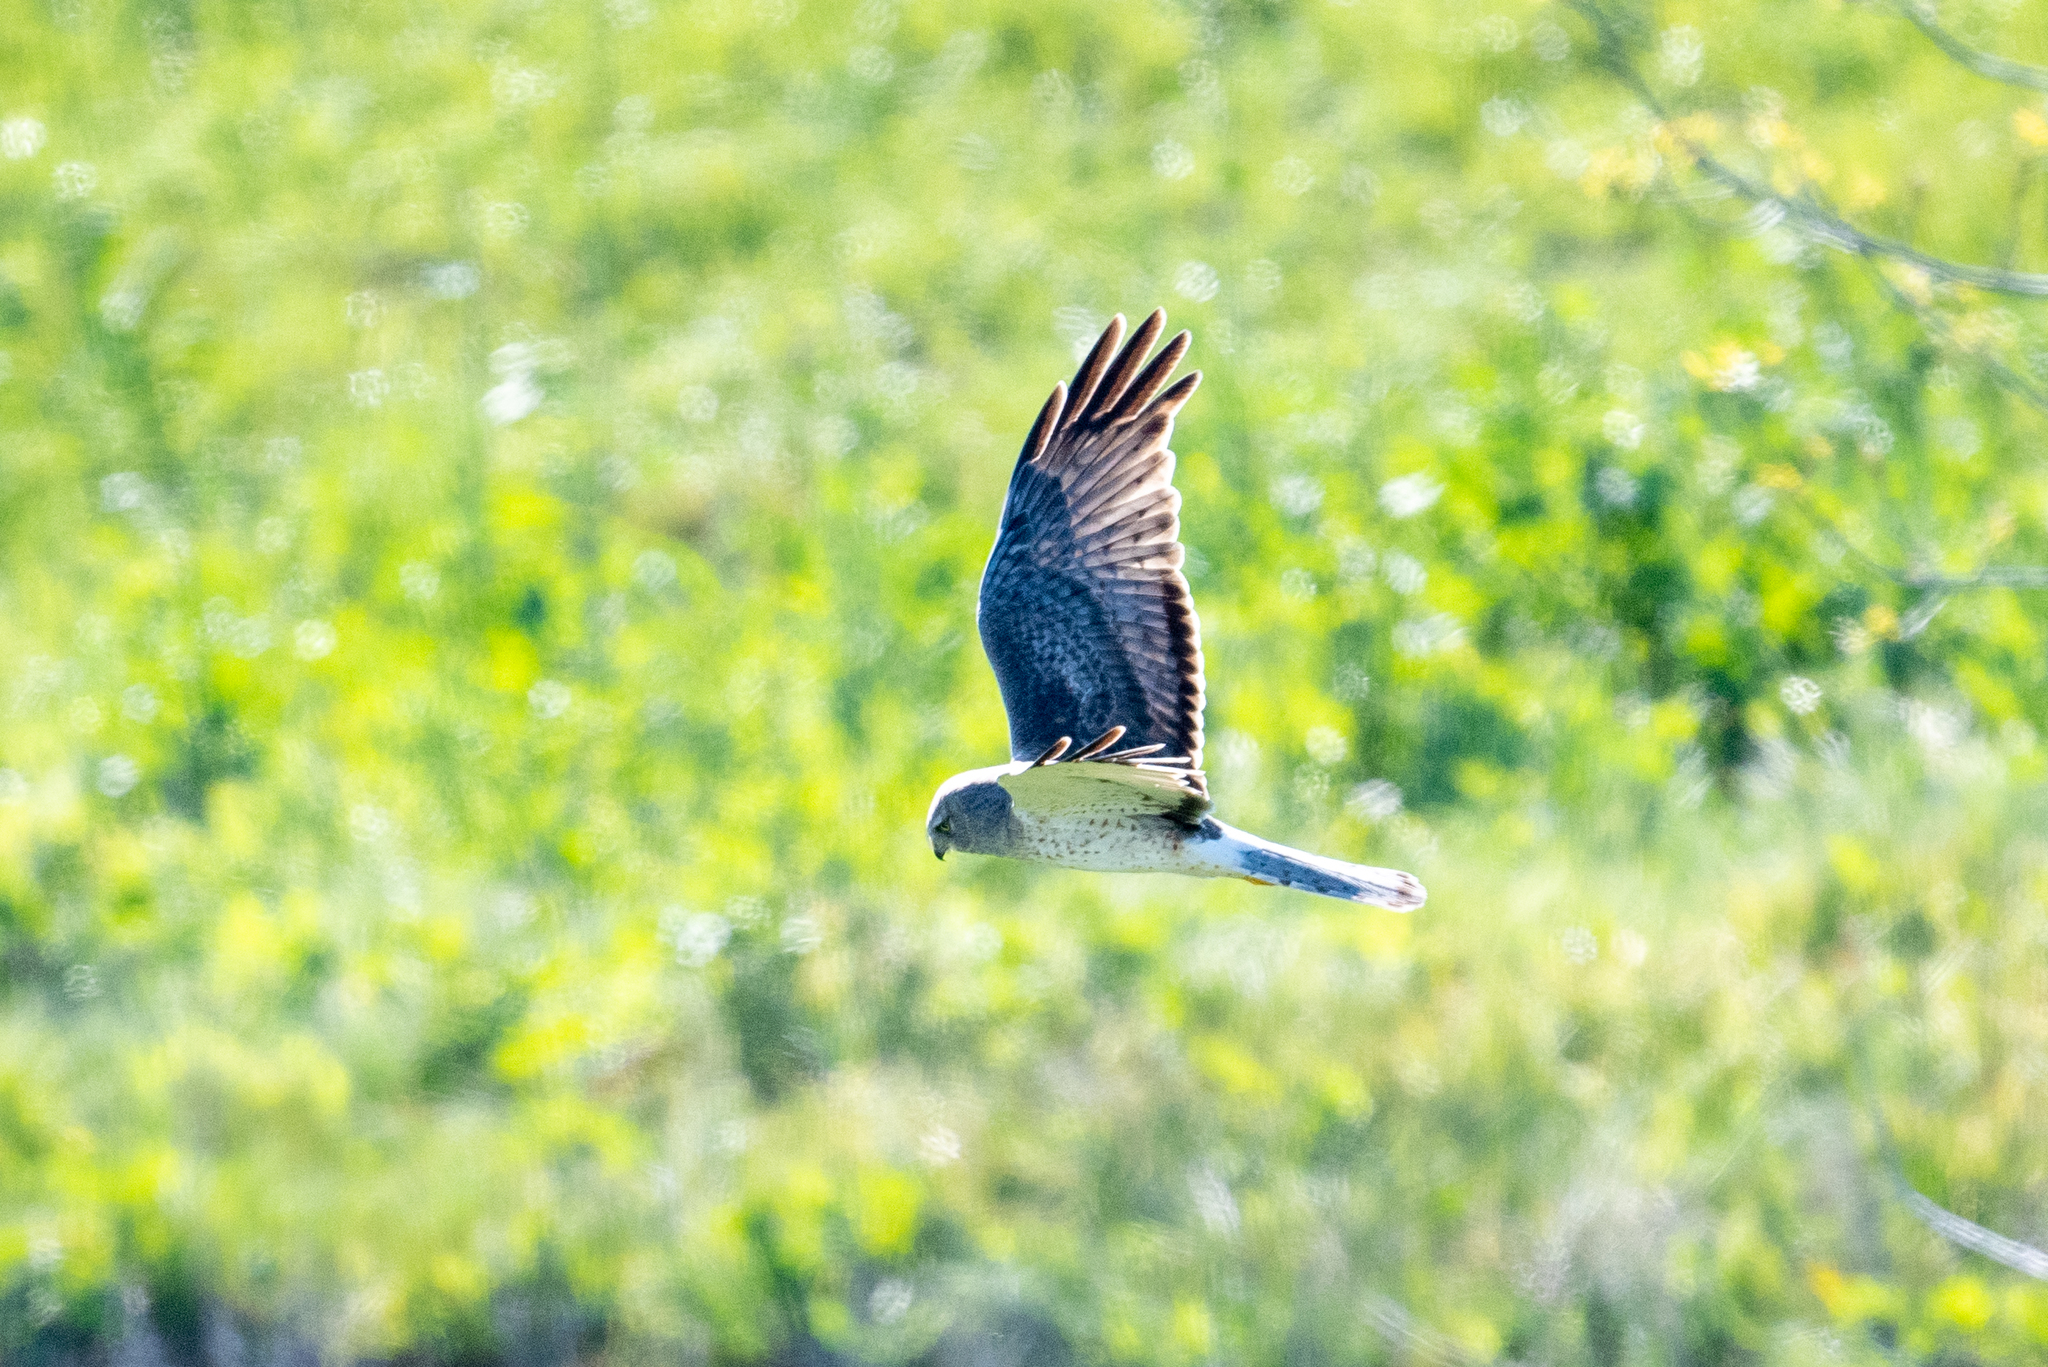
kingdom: Animalia
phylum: Chordata
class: Aves
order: Accipitriformes
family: Accipitridae
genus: Circus
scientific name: Circus cyaneus
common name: Hen harrier
